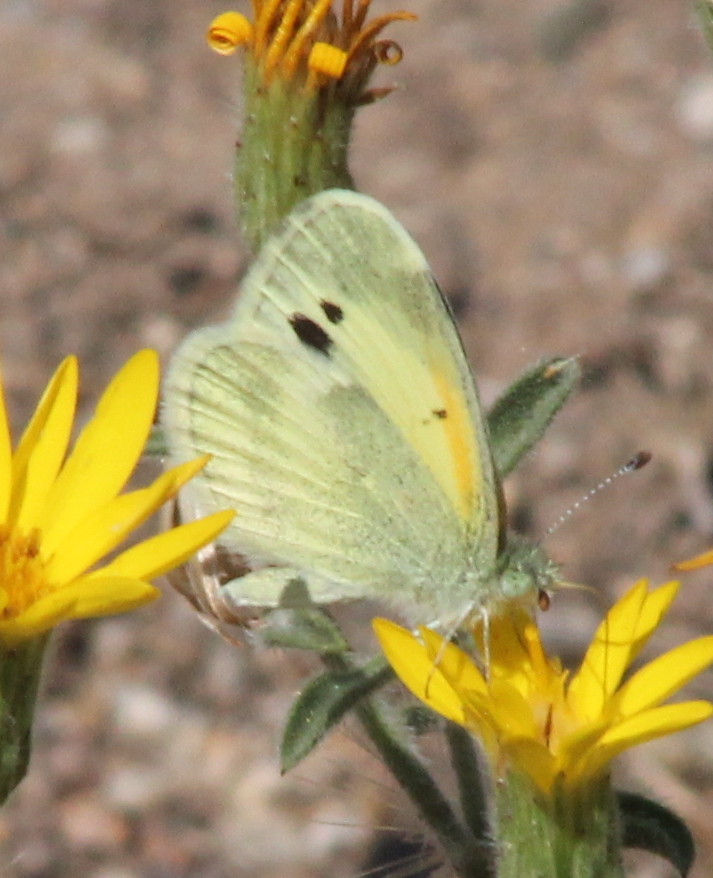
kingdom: Animalia
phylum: Arthropoda
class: Insecta
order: Lepidoptera
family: Pieridae
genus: Nathalis
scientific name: Nathalis iole
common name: Dainty sulphur
